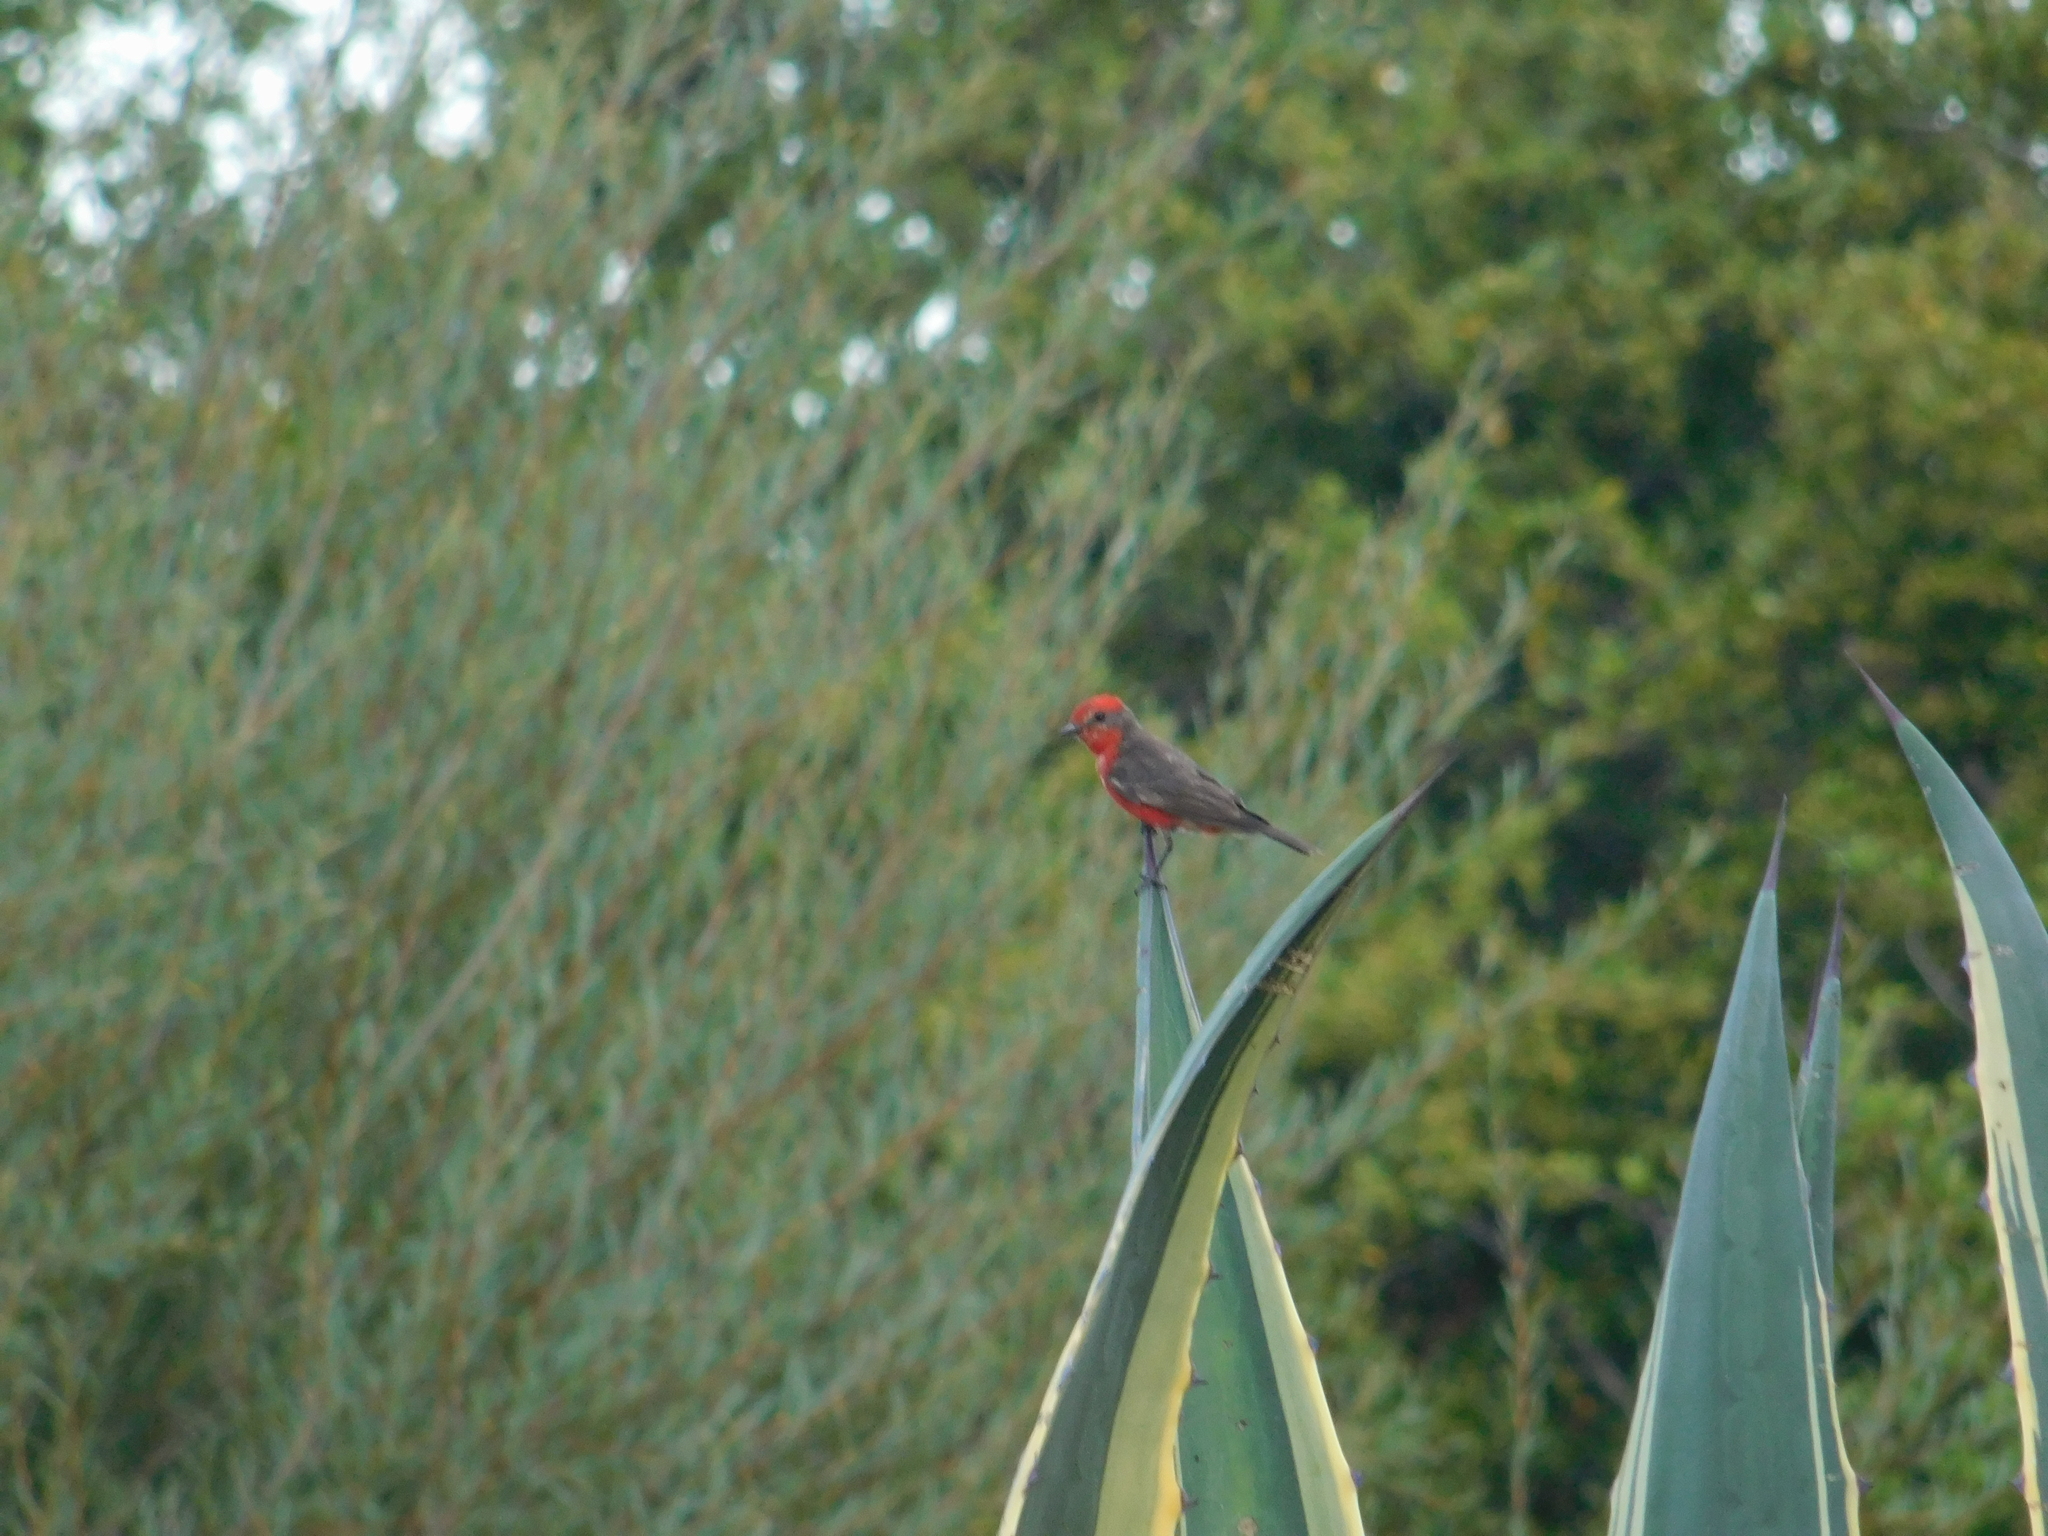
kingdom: Animalia
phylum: Chordata
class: Aves
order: Passeriformes
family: Tyrannidae
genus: Pyrocephalus
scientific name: Pyrocephalus rubinus
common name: Vermilion flycatcher
